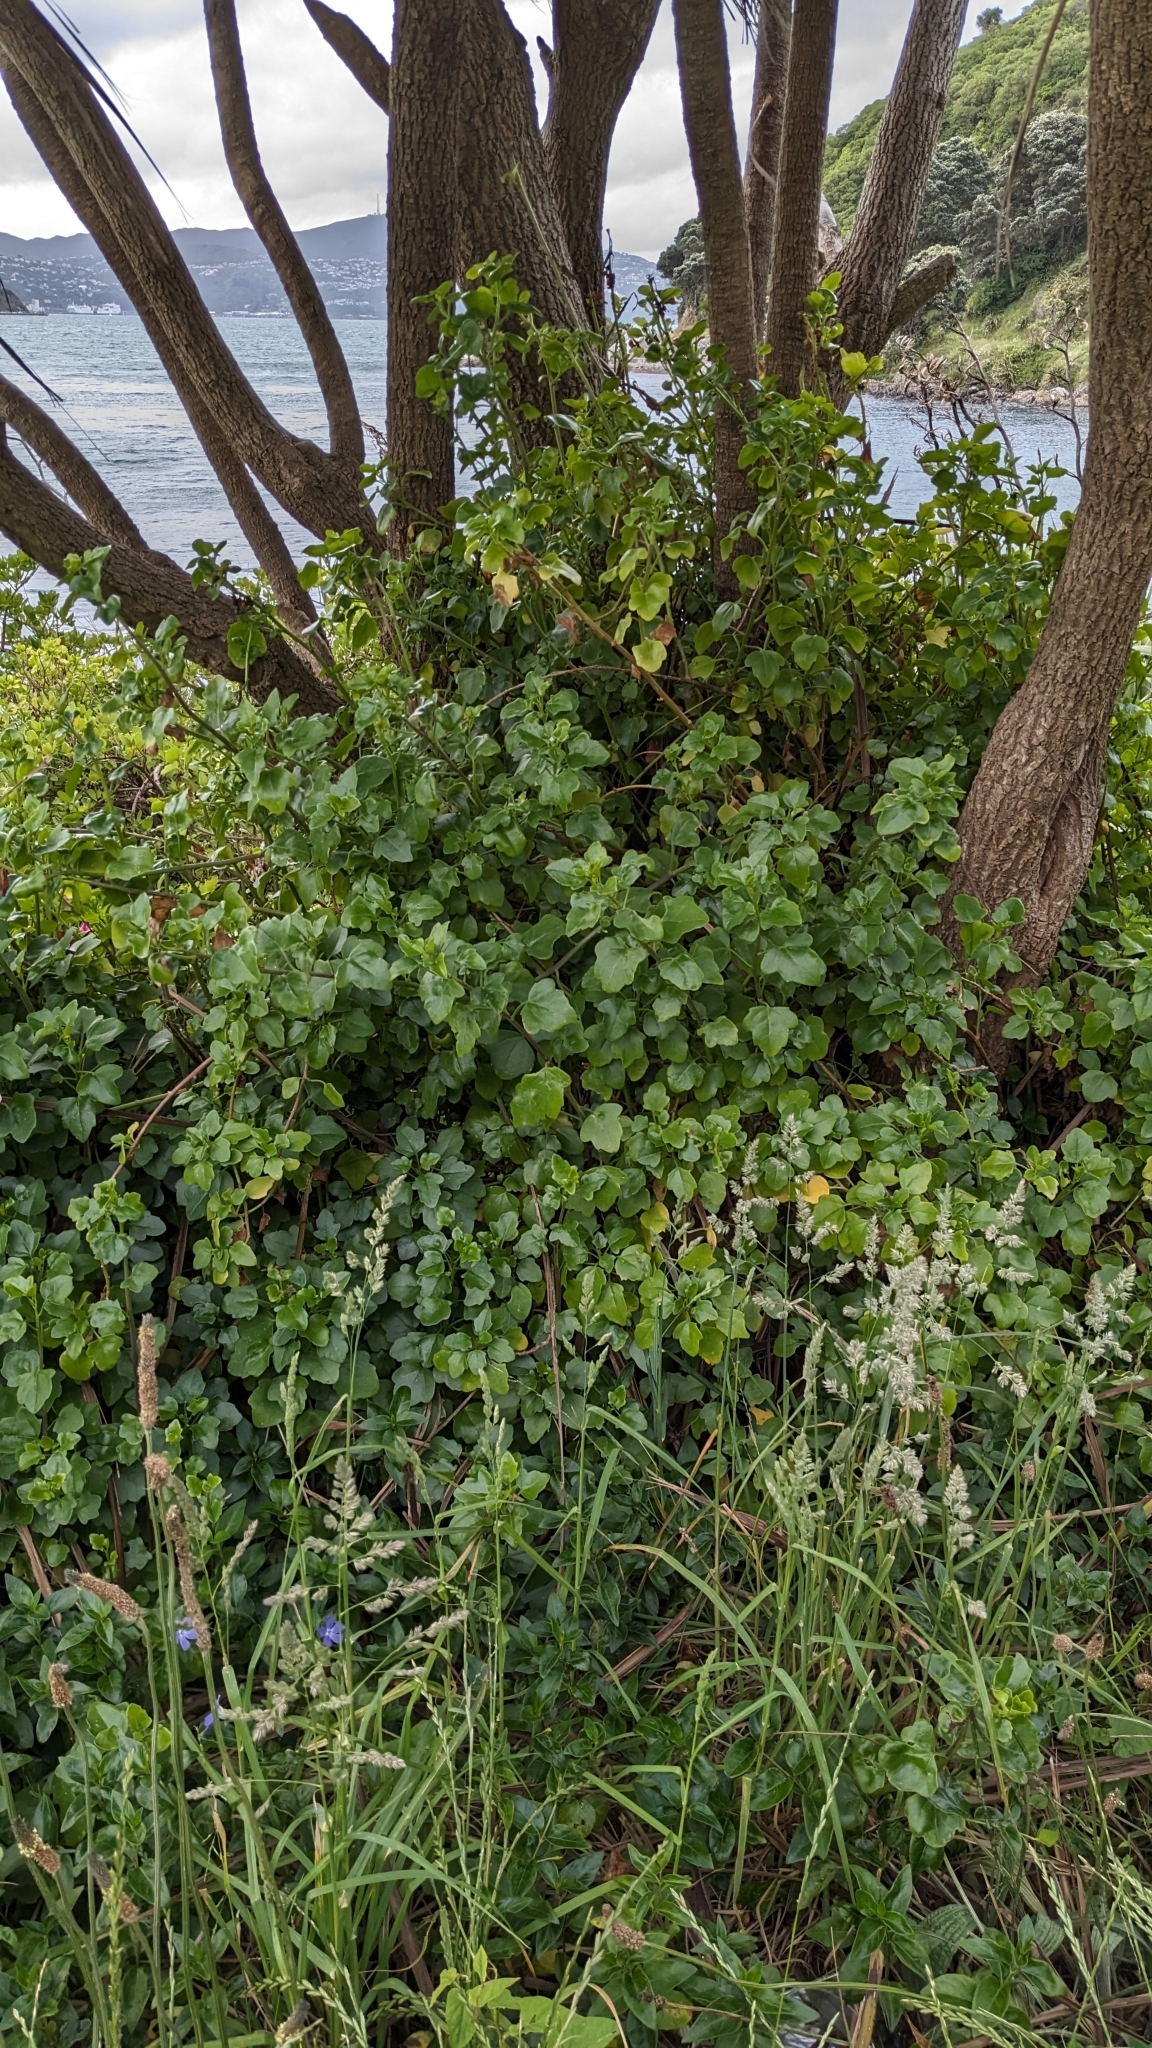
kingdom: Plantae
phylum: Tracheophyta
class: Magnoliopsida
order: Asterales
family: Asteraceae
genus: Senecio
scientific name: Senecio angulatus
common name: Climbing groundsel
